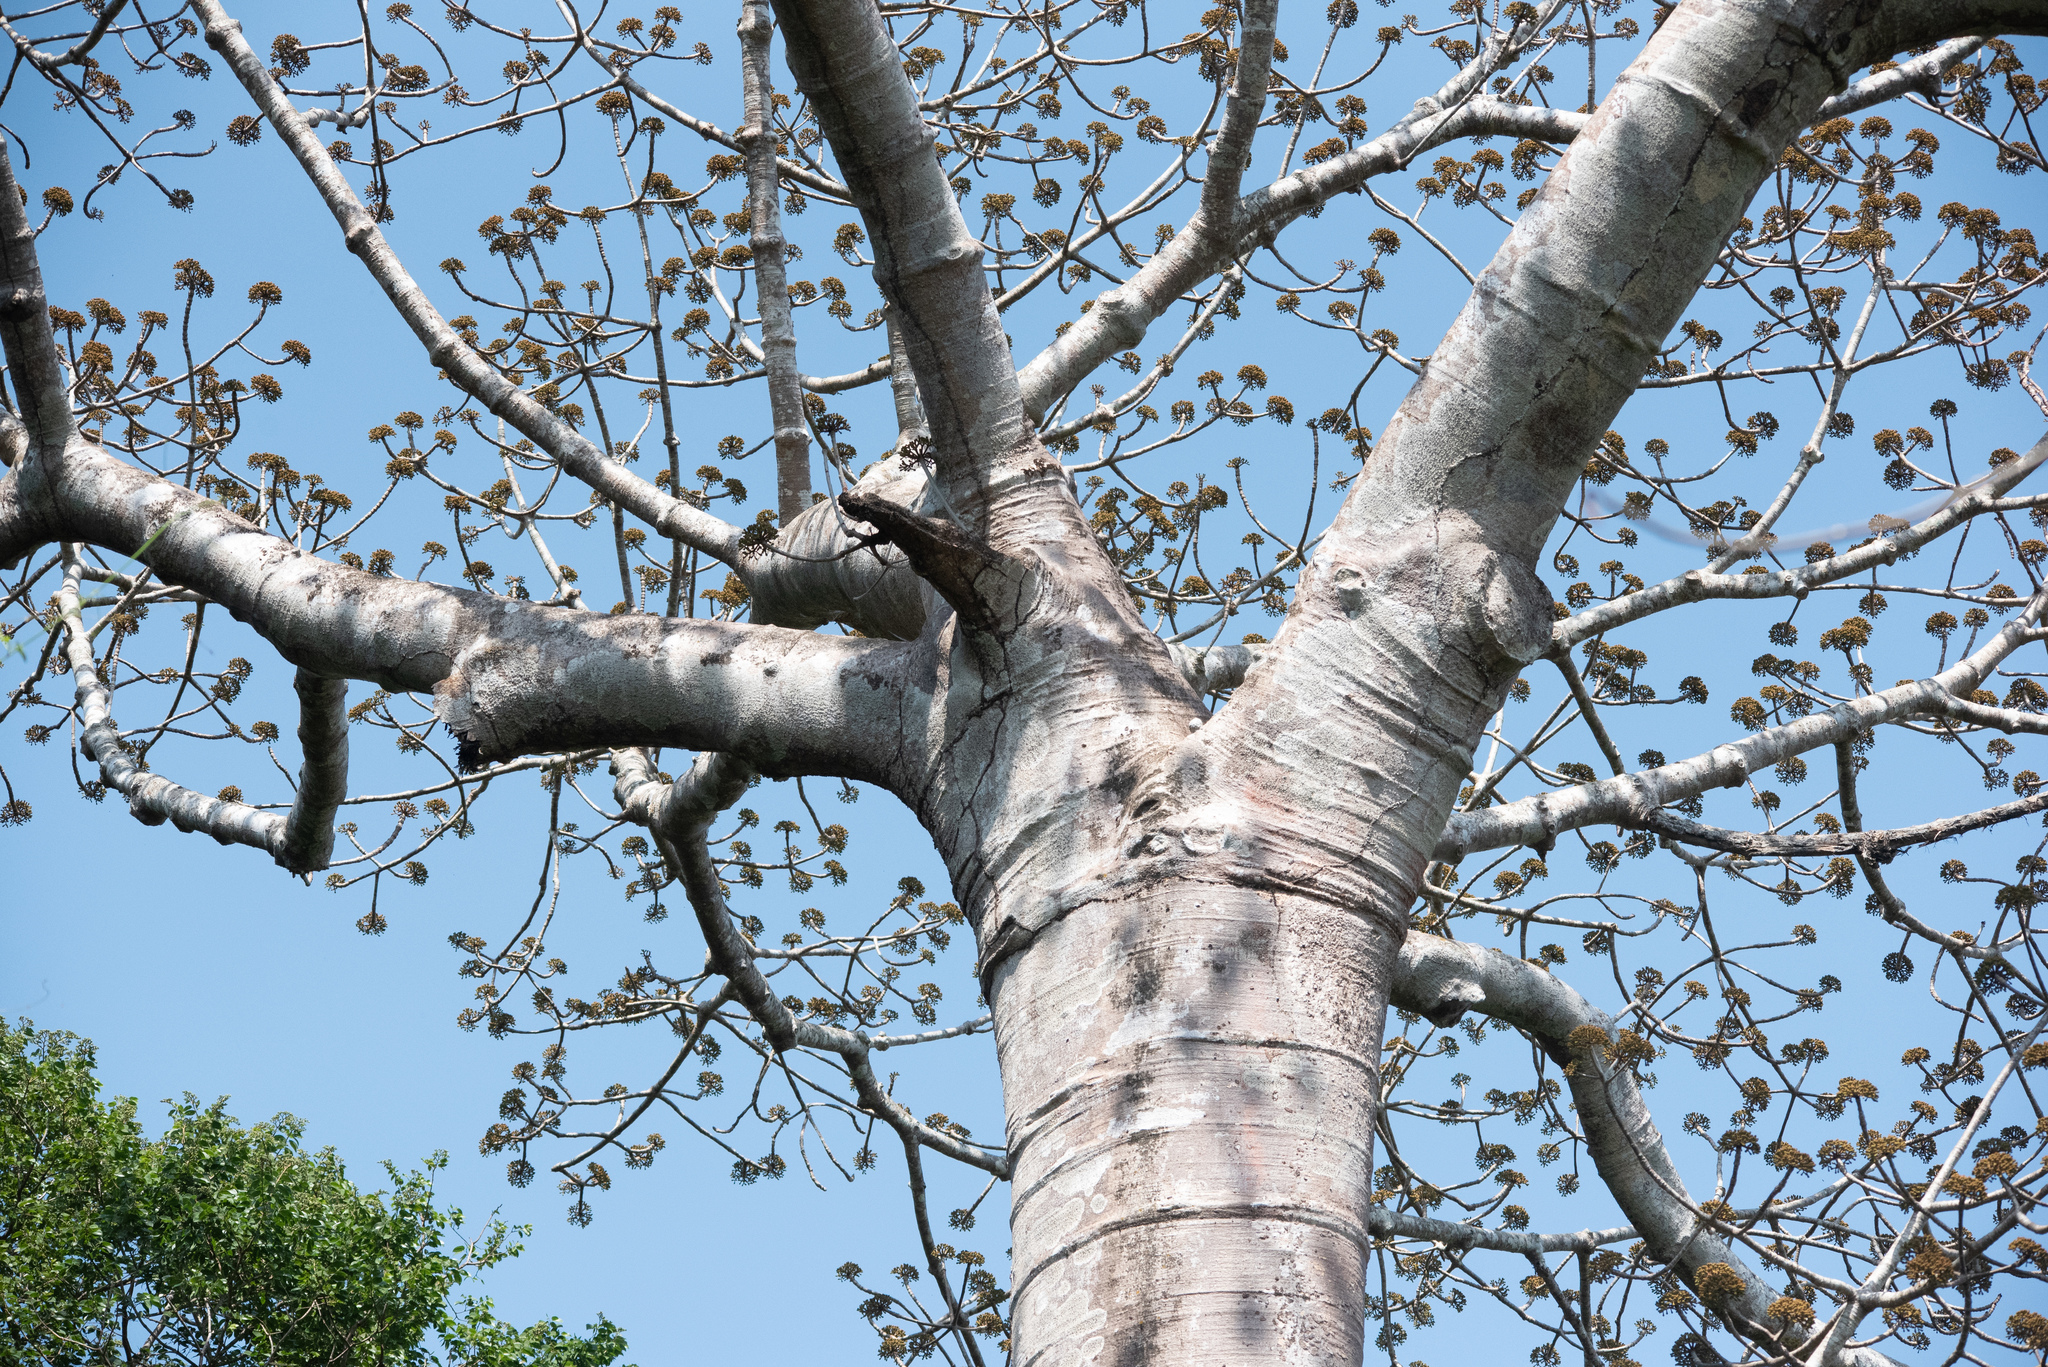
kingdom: Plantae
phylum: Tracheophyta
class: Magnoliopsida
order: Malvales
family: Malvaceae
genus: Cavanillesia
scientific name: Cavanillesia platanifolia
